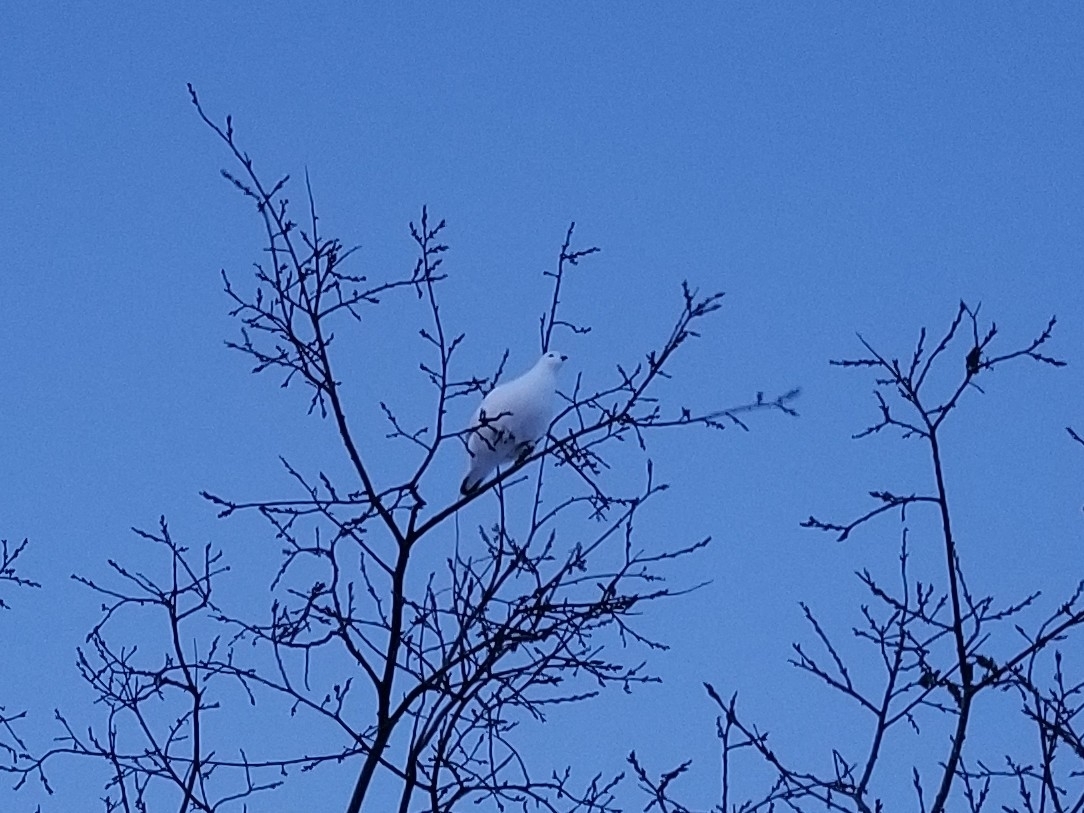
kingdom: Animalia
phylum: Chordata
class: Aves
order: Galliformes
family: Phasianidae
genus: Lagopus
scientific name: Lagopus lagopus
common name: Willow ptarmigan
